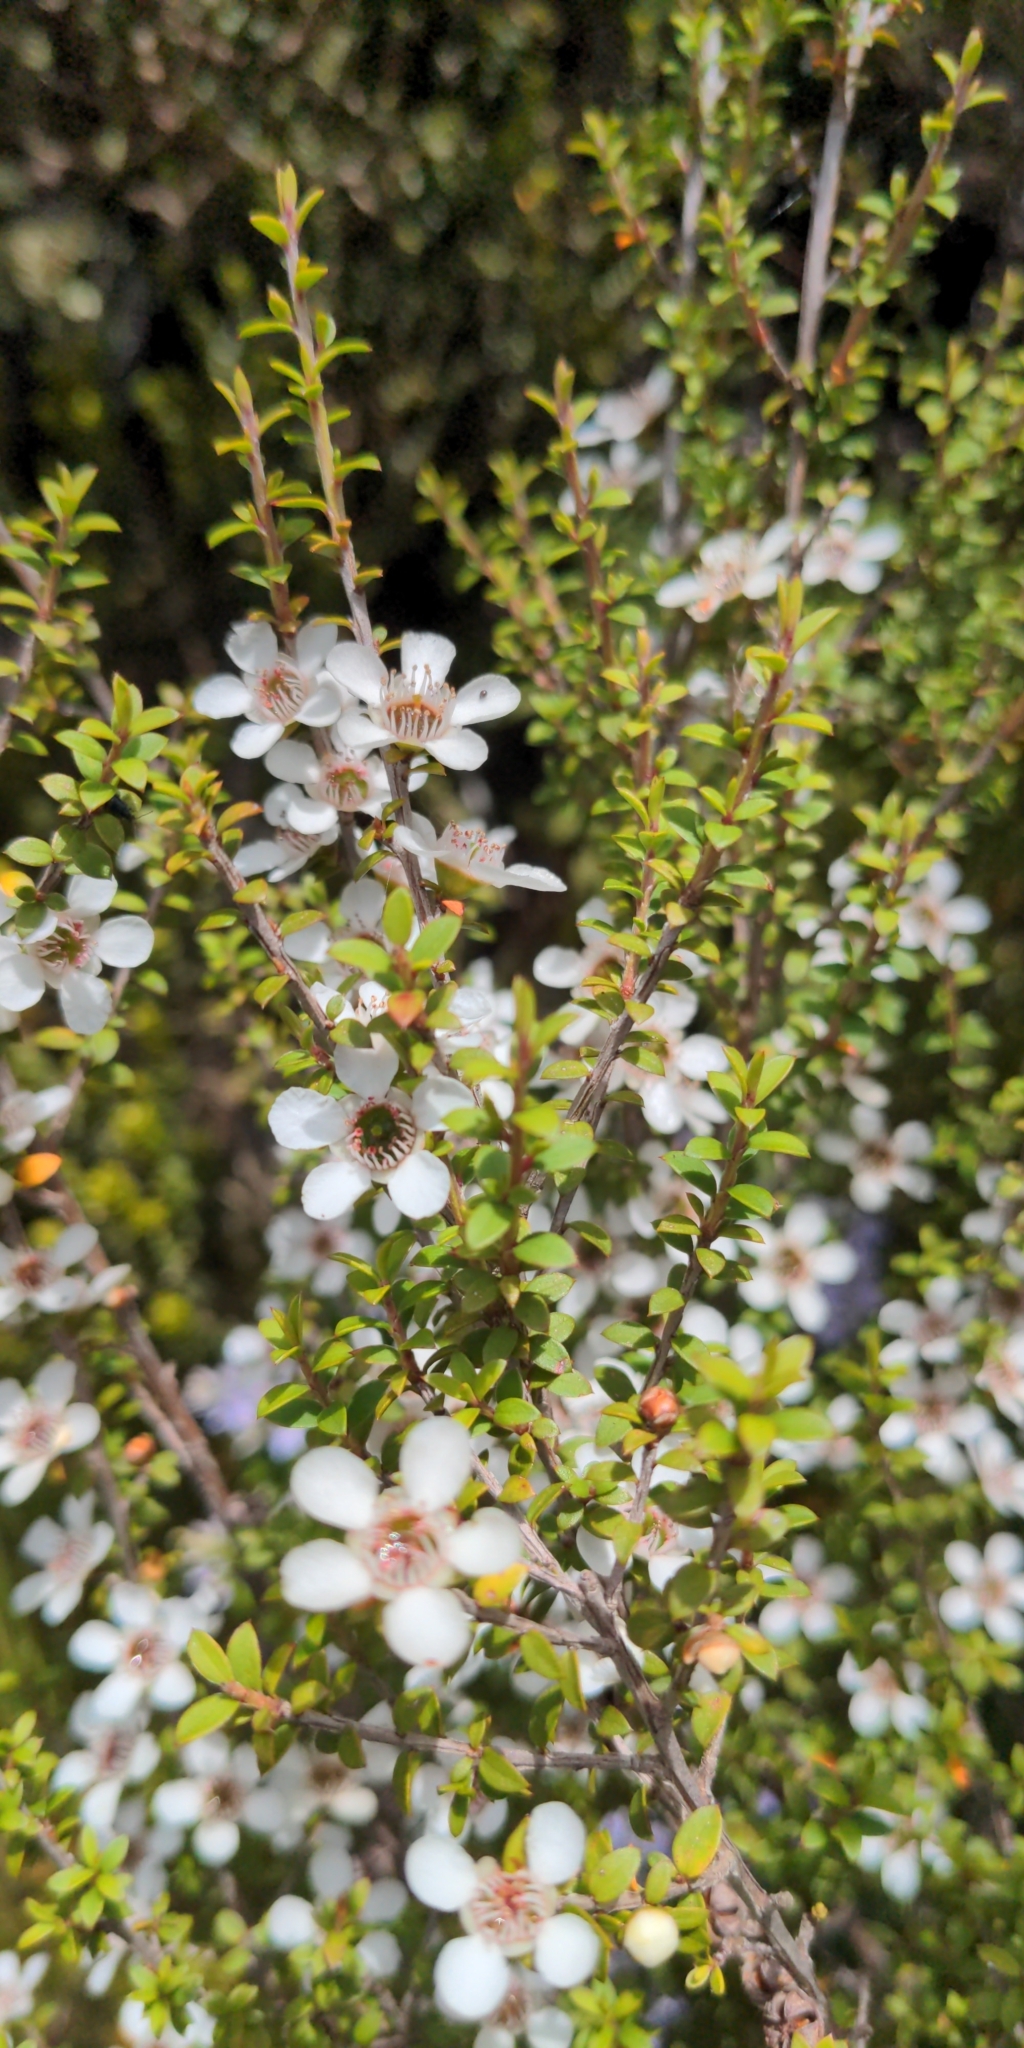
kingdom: Plantae
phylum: Tracheophyta
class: Magnoliopsida
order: Myrtales
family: Myrtaceae
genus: Leptospermum
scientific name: Leptospermum scoparium
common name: Broom tea-tree
